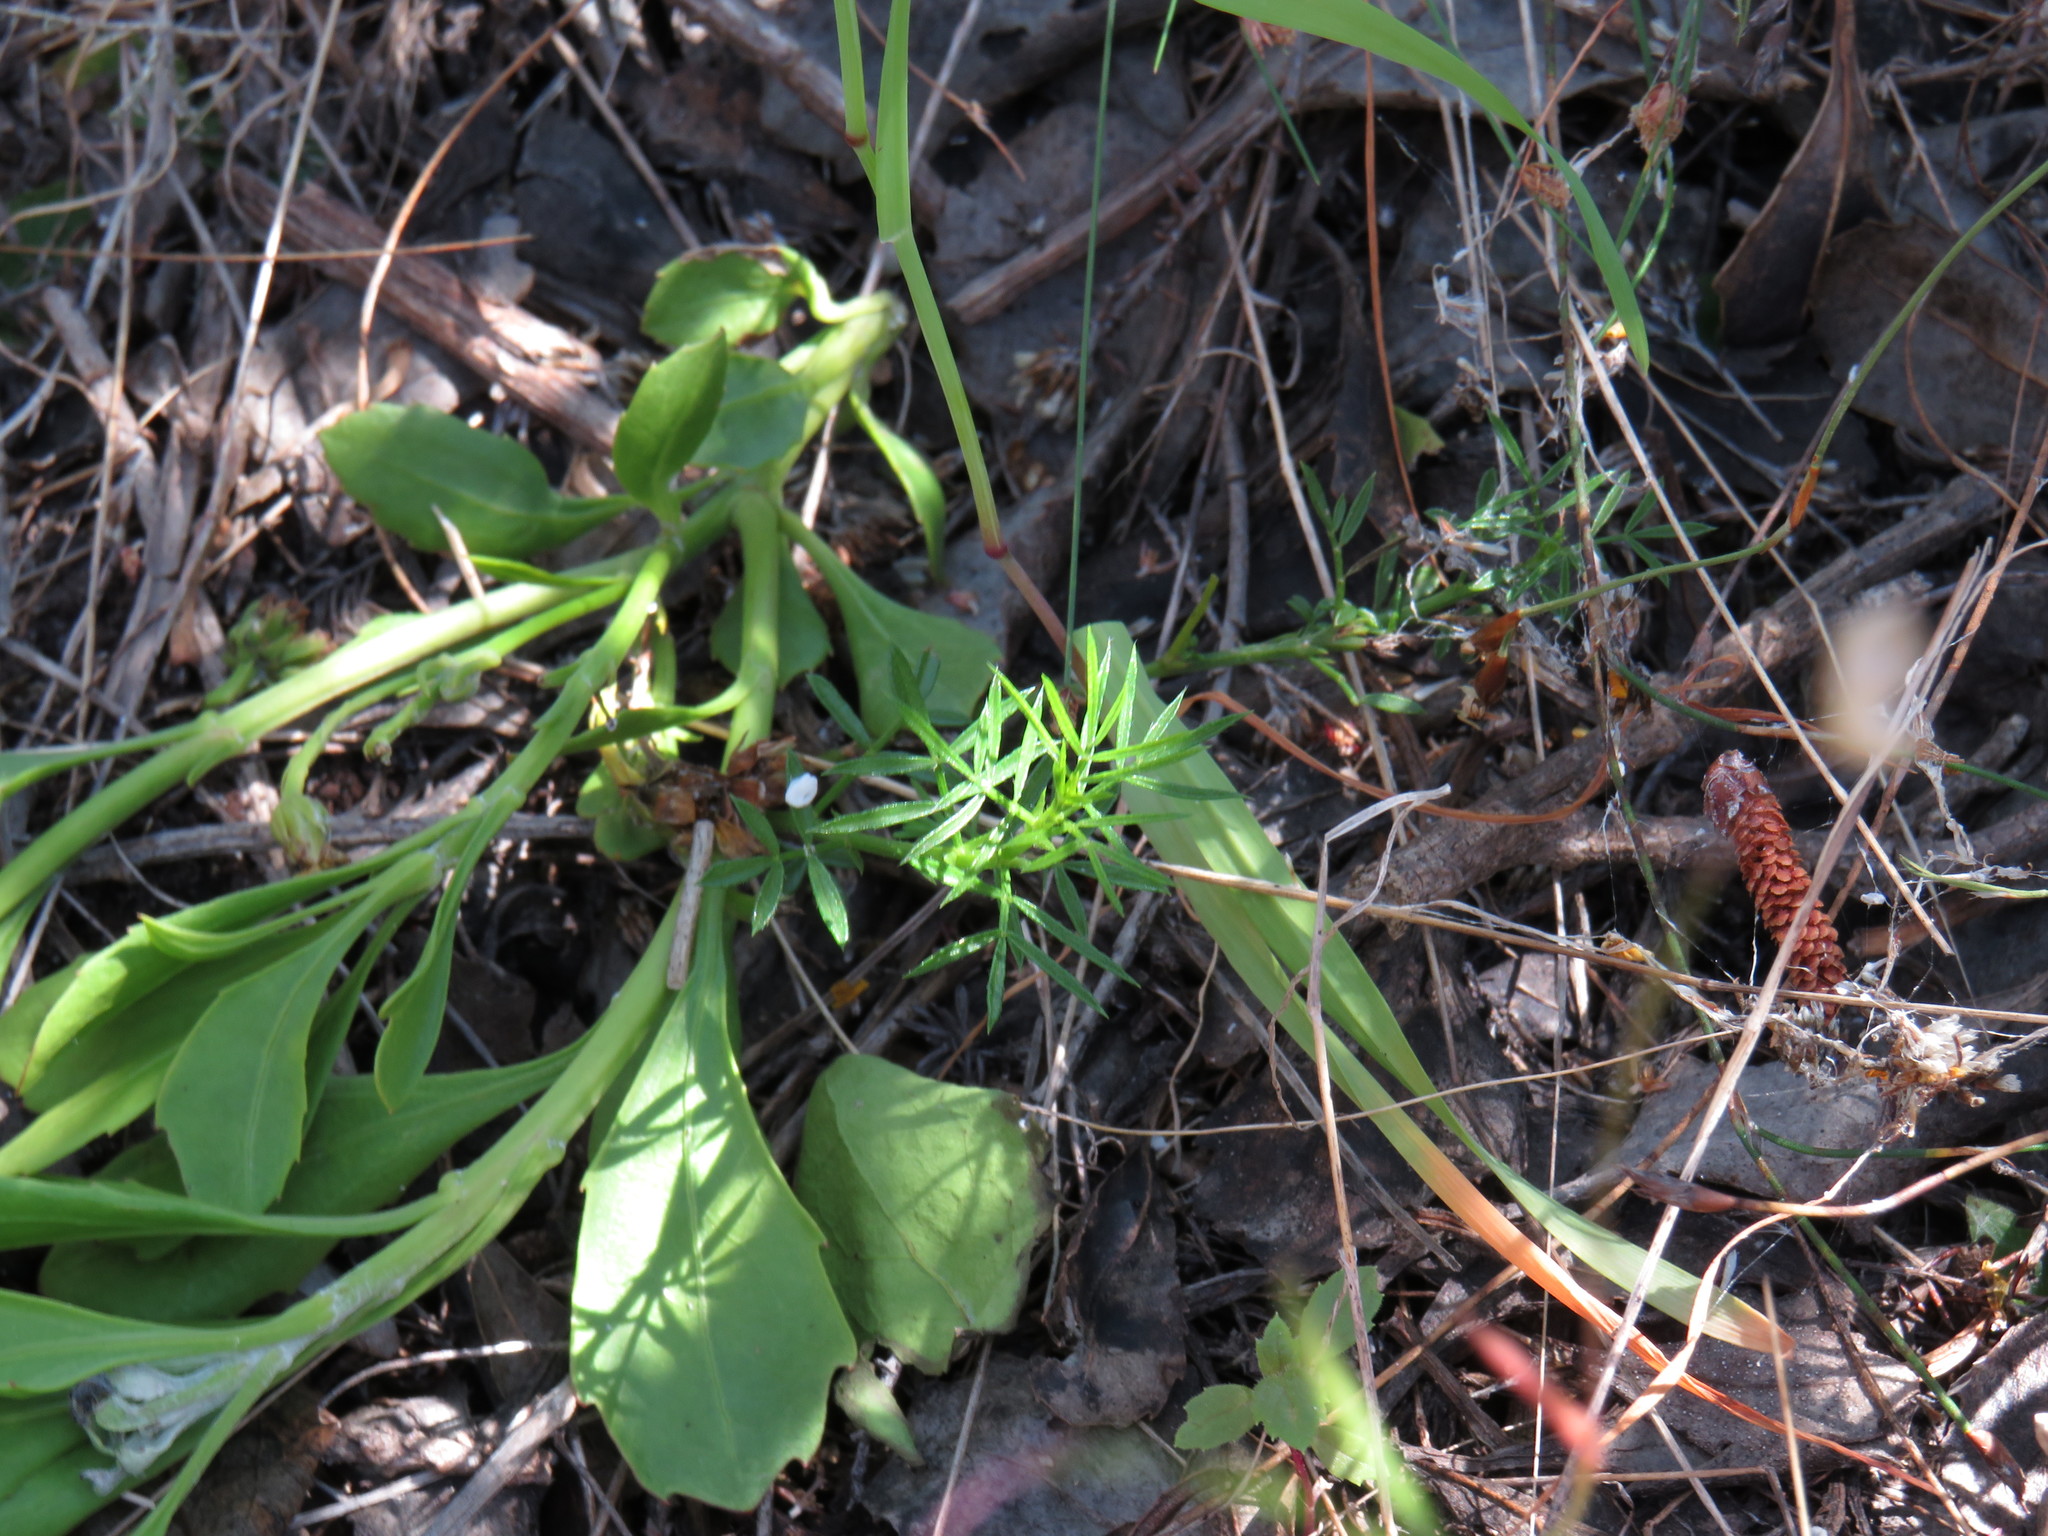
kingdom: Plantae
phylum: Tracheophyta
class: Magnoliopsida
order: Fabales
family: Fabaceae
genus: Psoralea
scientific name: Psoralea pinnata
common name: African scurfpea
